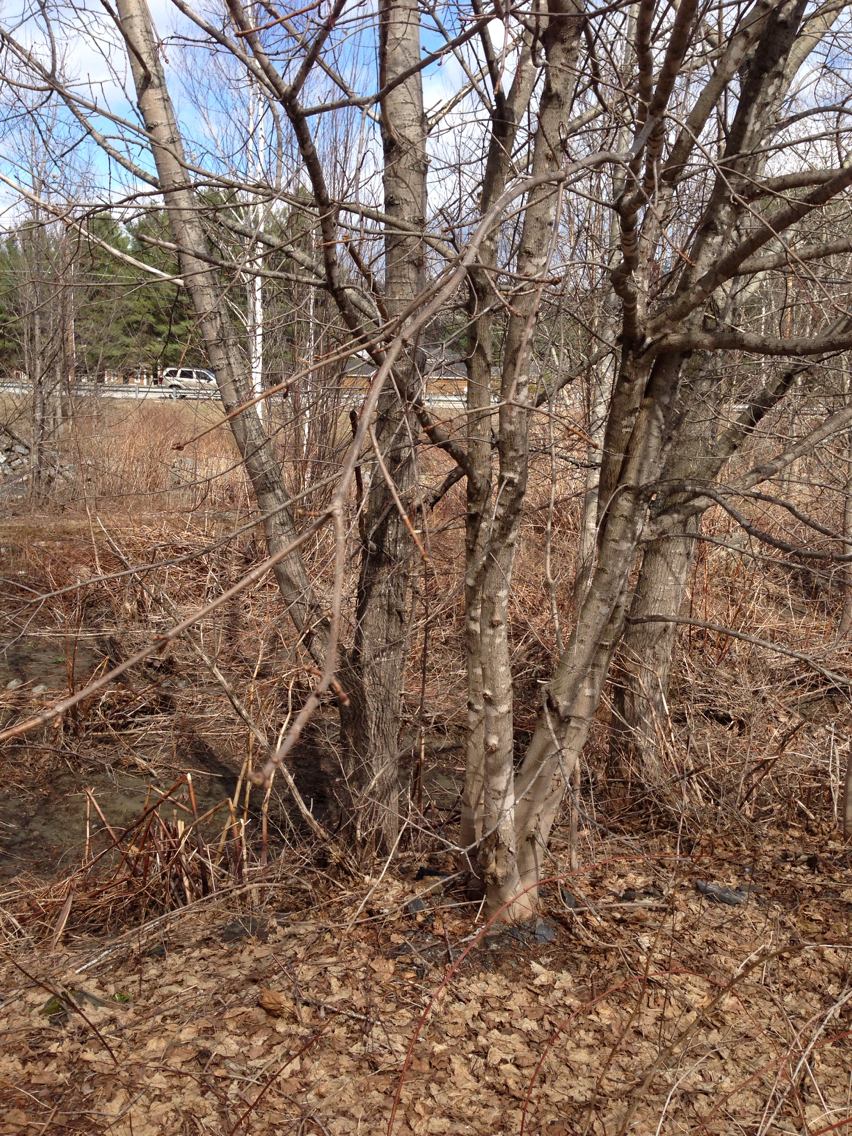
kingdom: Plantae
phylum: Tracheophyta
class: Magnoliopsida
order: Sapindales
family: Sapindaceae
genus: Acer
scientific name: Acer negundo
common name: Ashleaf maple
